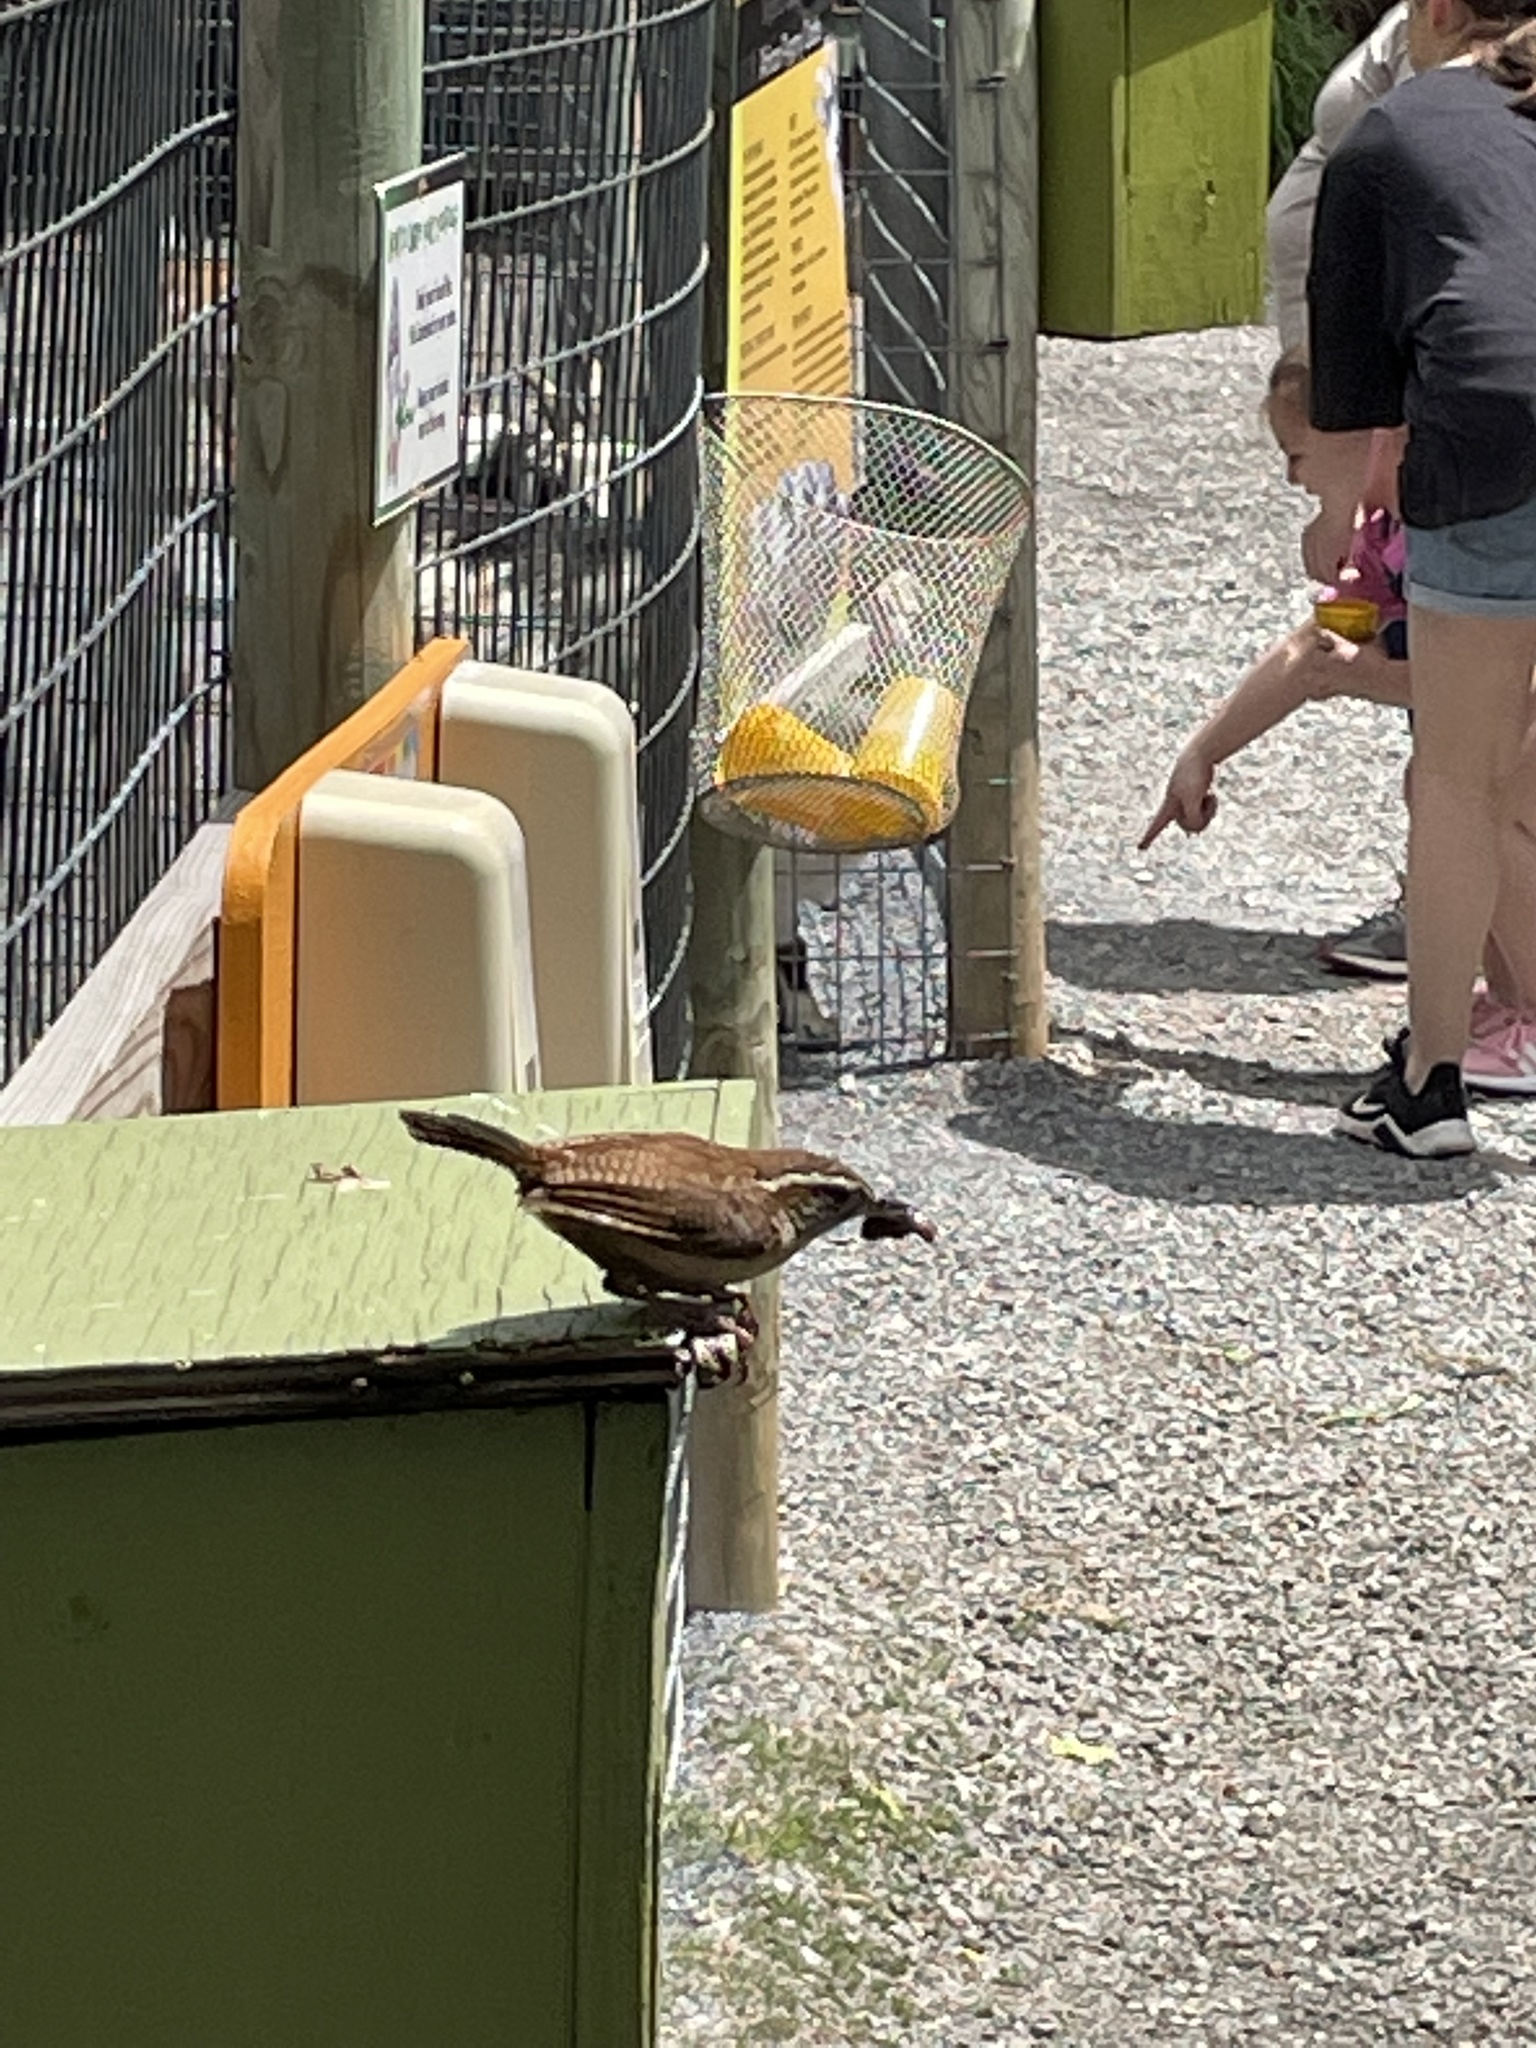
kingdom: Animalia
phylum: Chordata
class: Aves
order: Passeriformes
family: Troglodytidae
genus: Thryothorus
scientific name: Thryothorus ludovicianus
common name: Carolina wren
